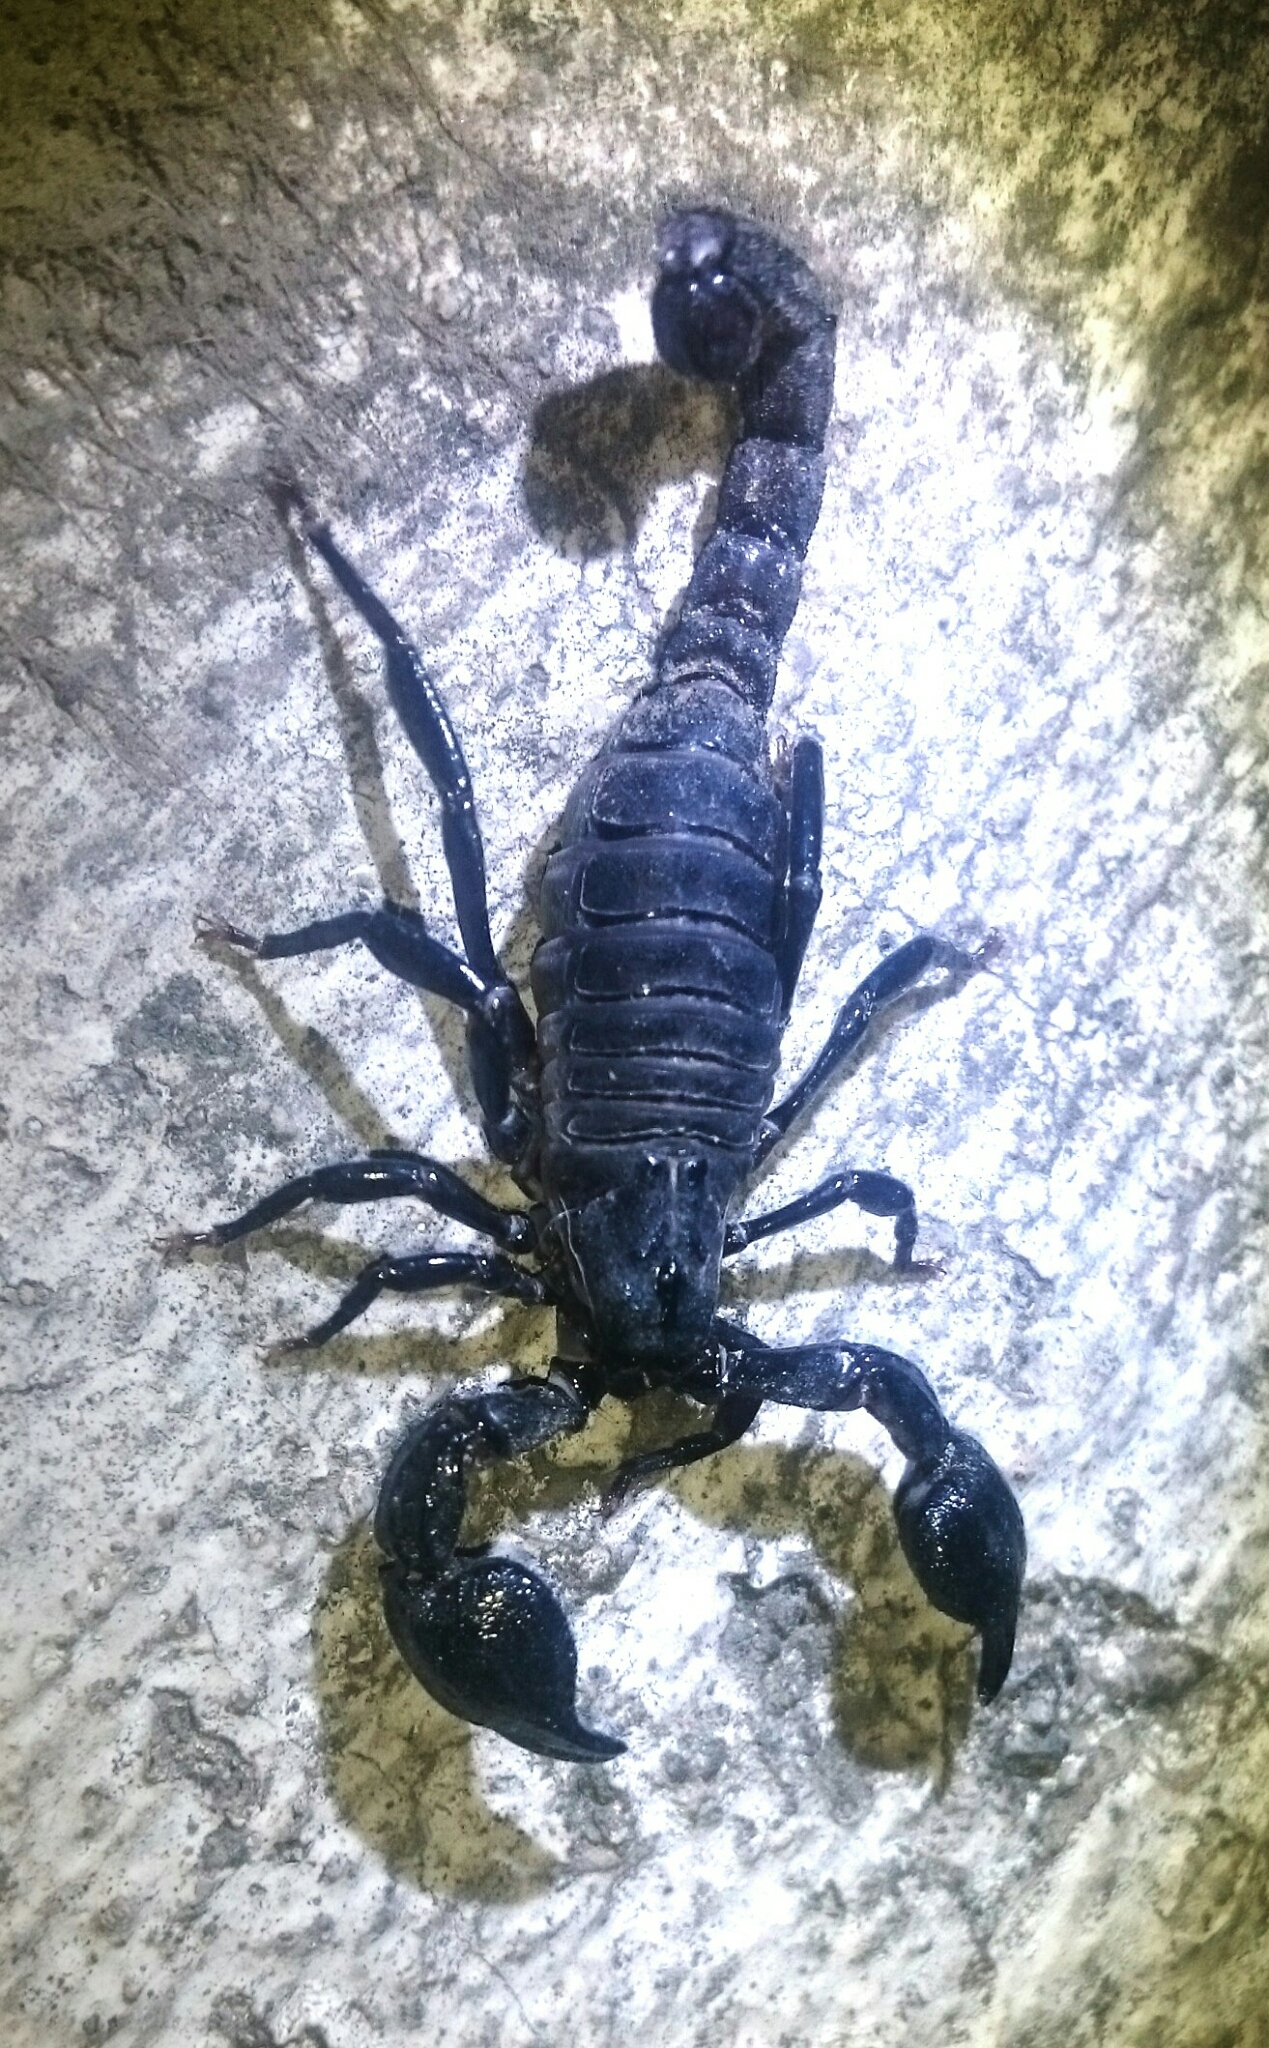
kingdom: Animalia
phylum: Arthropoda
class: Arachnida
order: Scorpiones
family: Chactidae
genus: Teuthraustes
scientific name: Teuthraustes atramentarius
